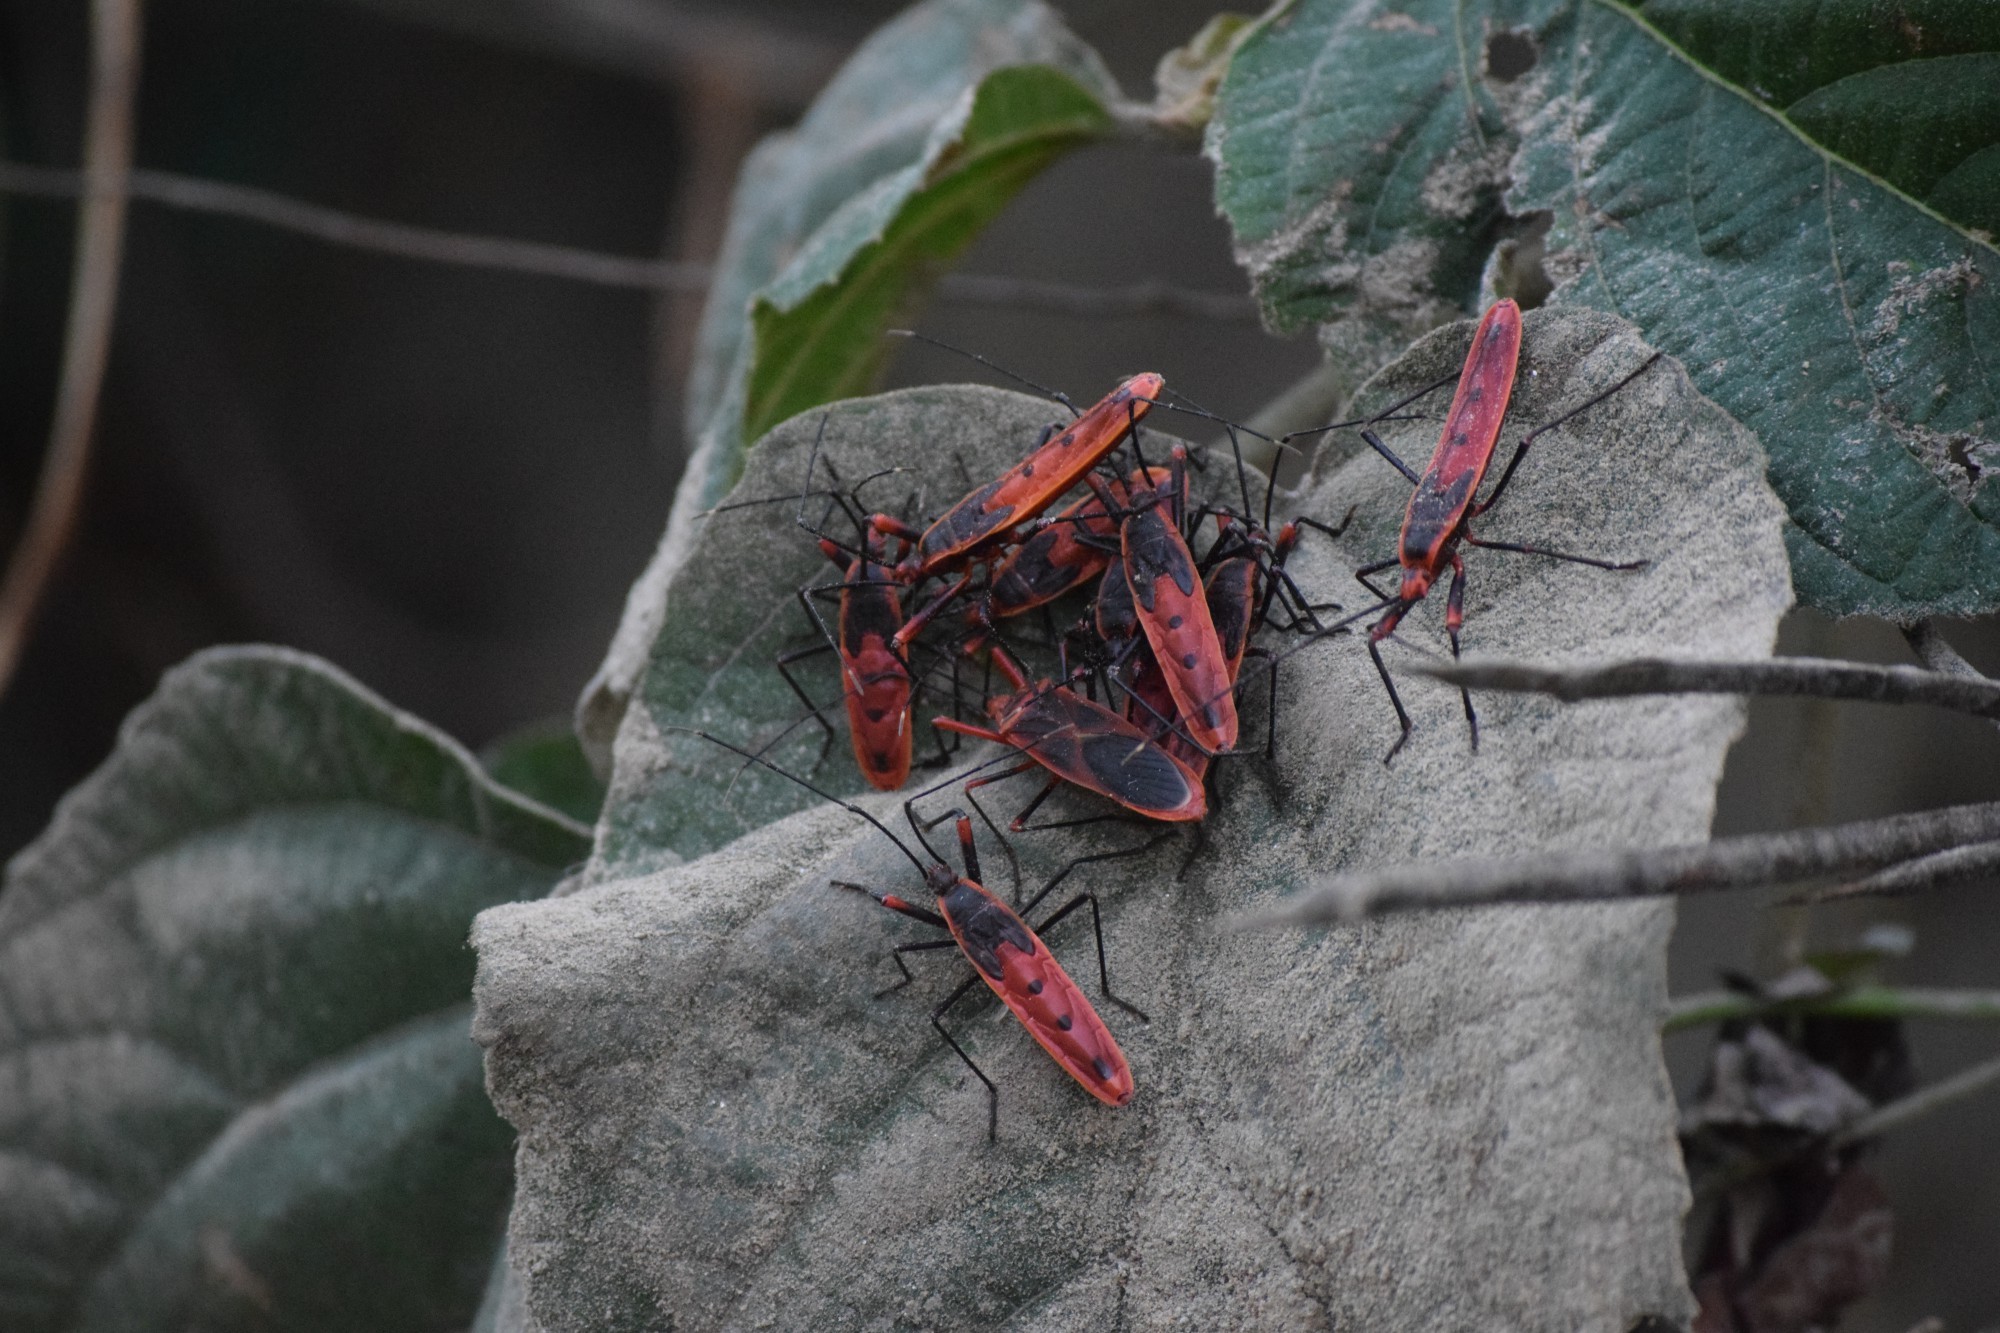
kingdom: Animalia
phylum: Arthropoda
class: Insecta
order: Hemiptera
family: Largidae
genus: Macrocheraia
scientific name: Macrocheraia grandis
